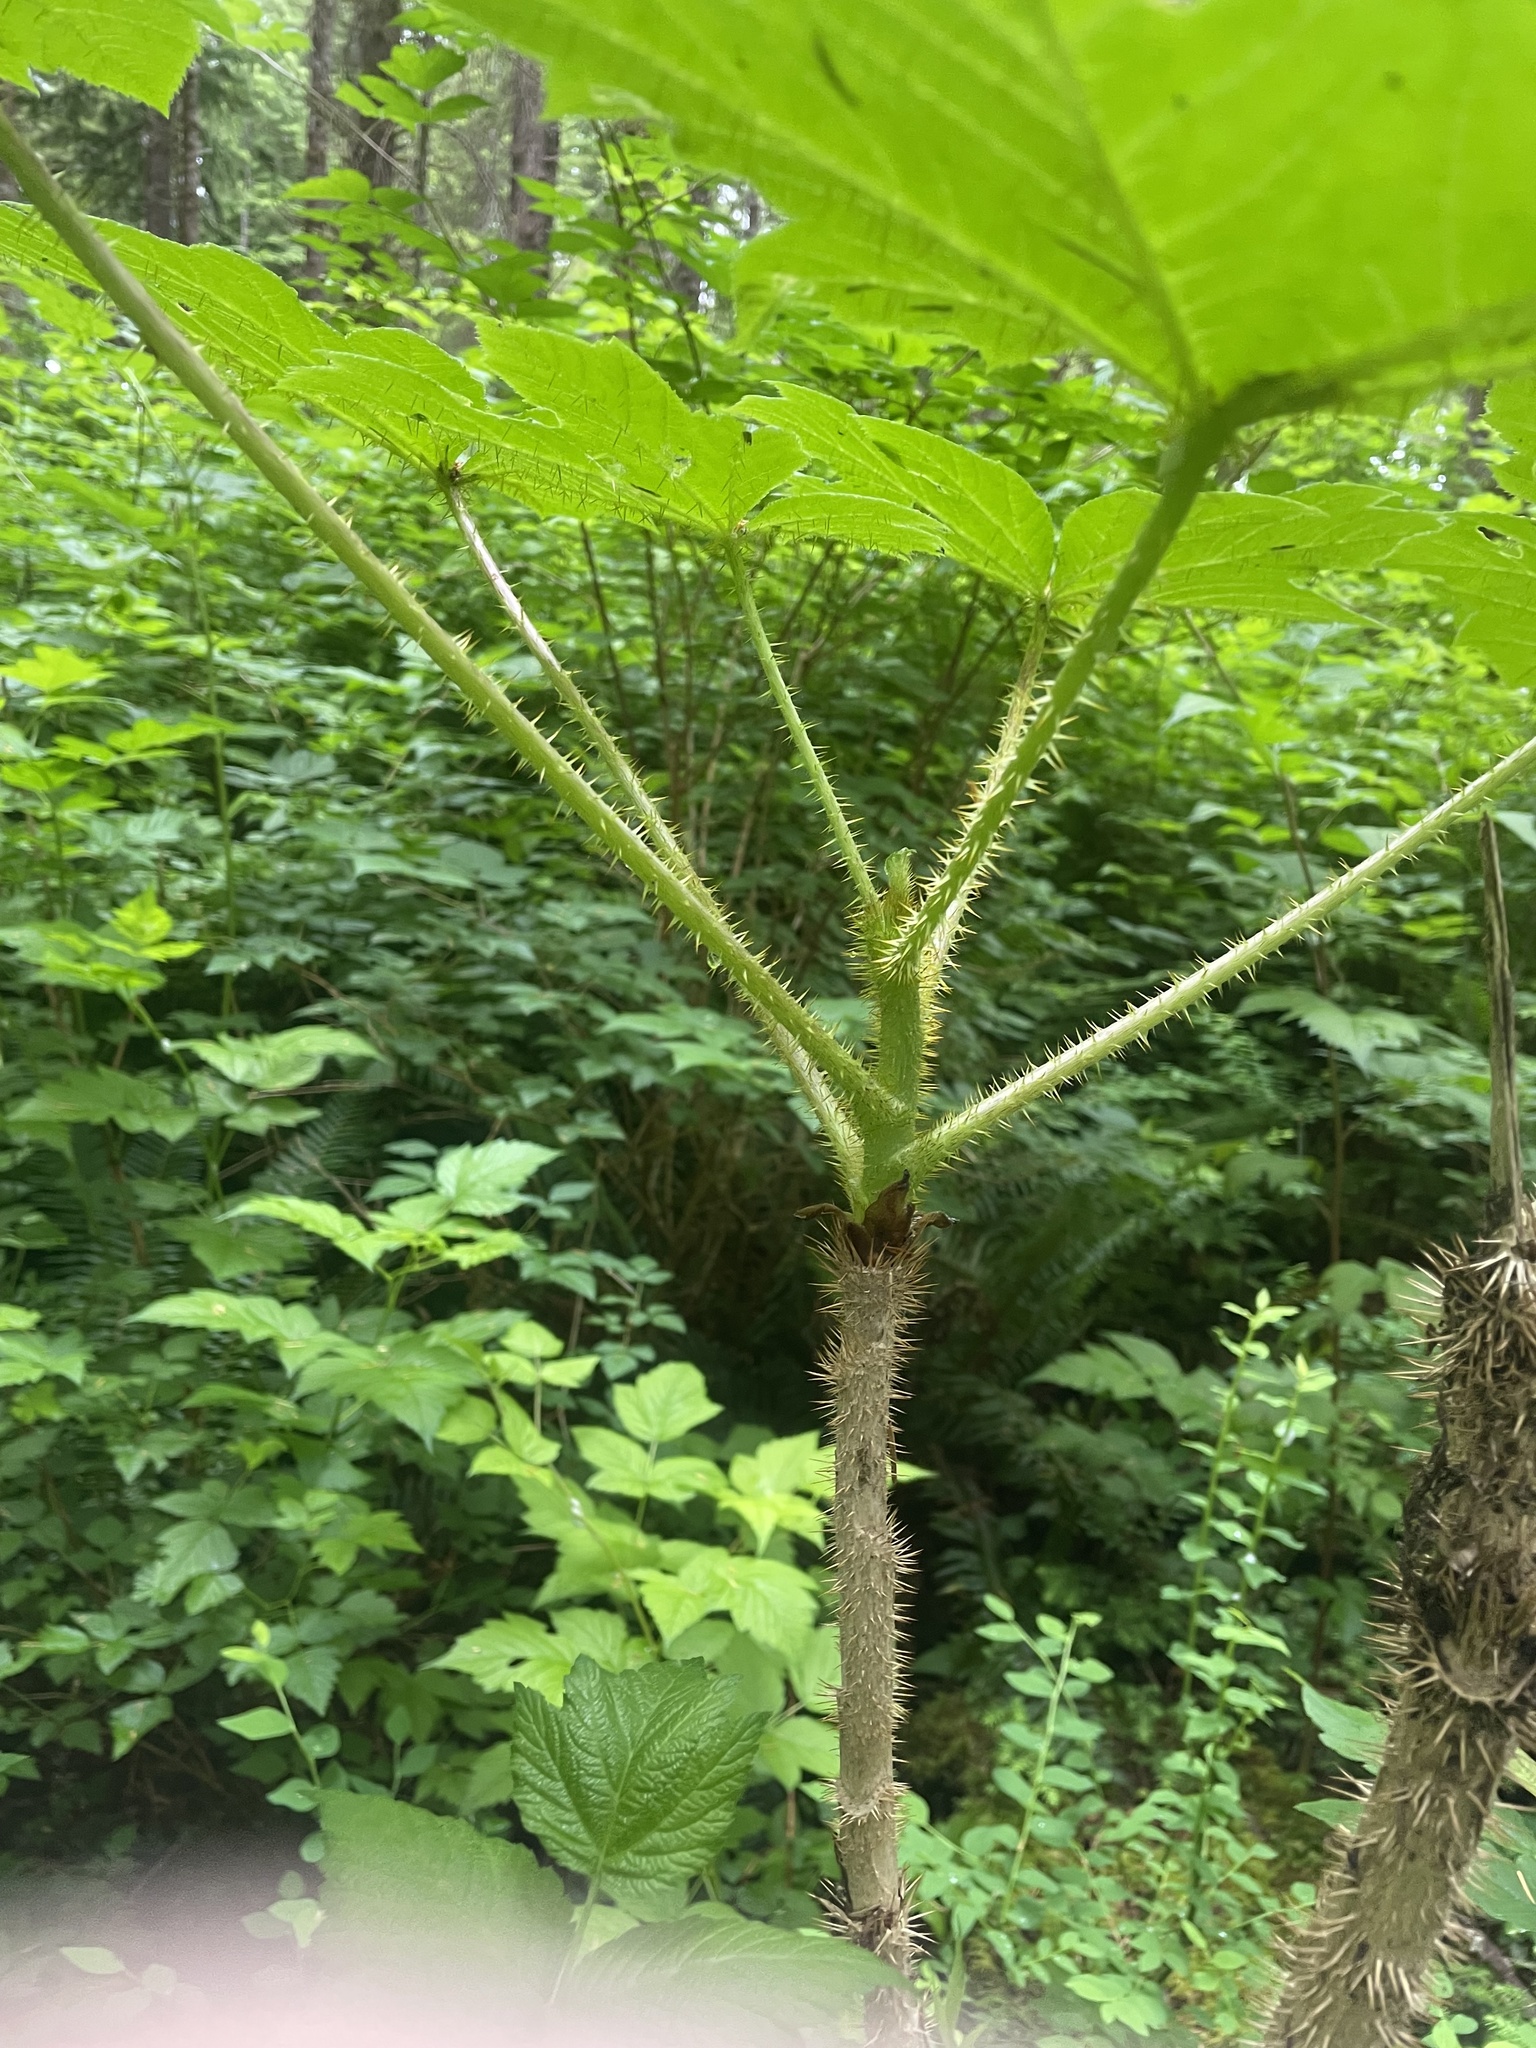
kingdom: Plantae
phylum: Tracheophyta
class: Magnoliopsida
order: Apiales
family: Araliaceae
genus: Oplopanax
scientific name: Oplopanax horridus
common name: Devil's walking-stick
